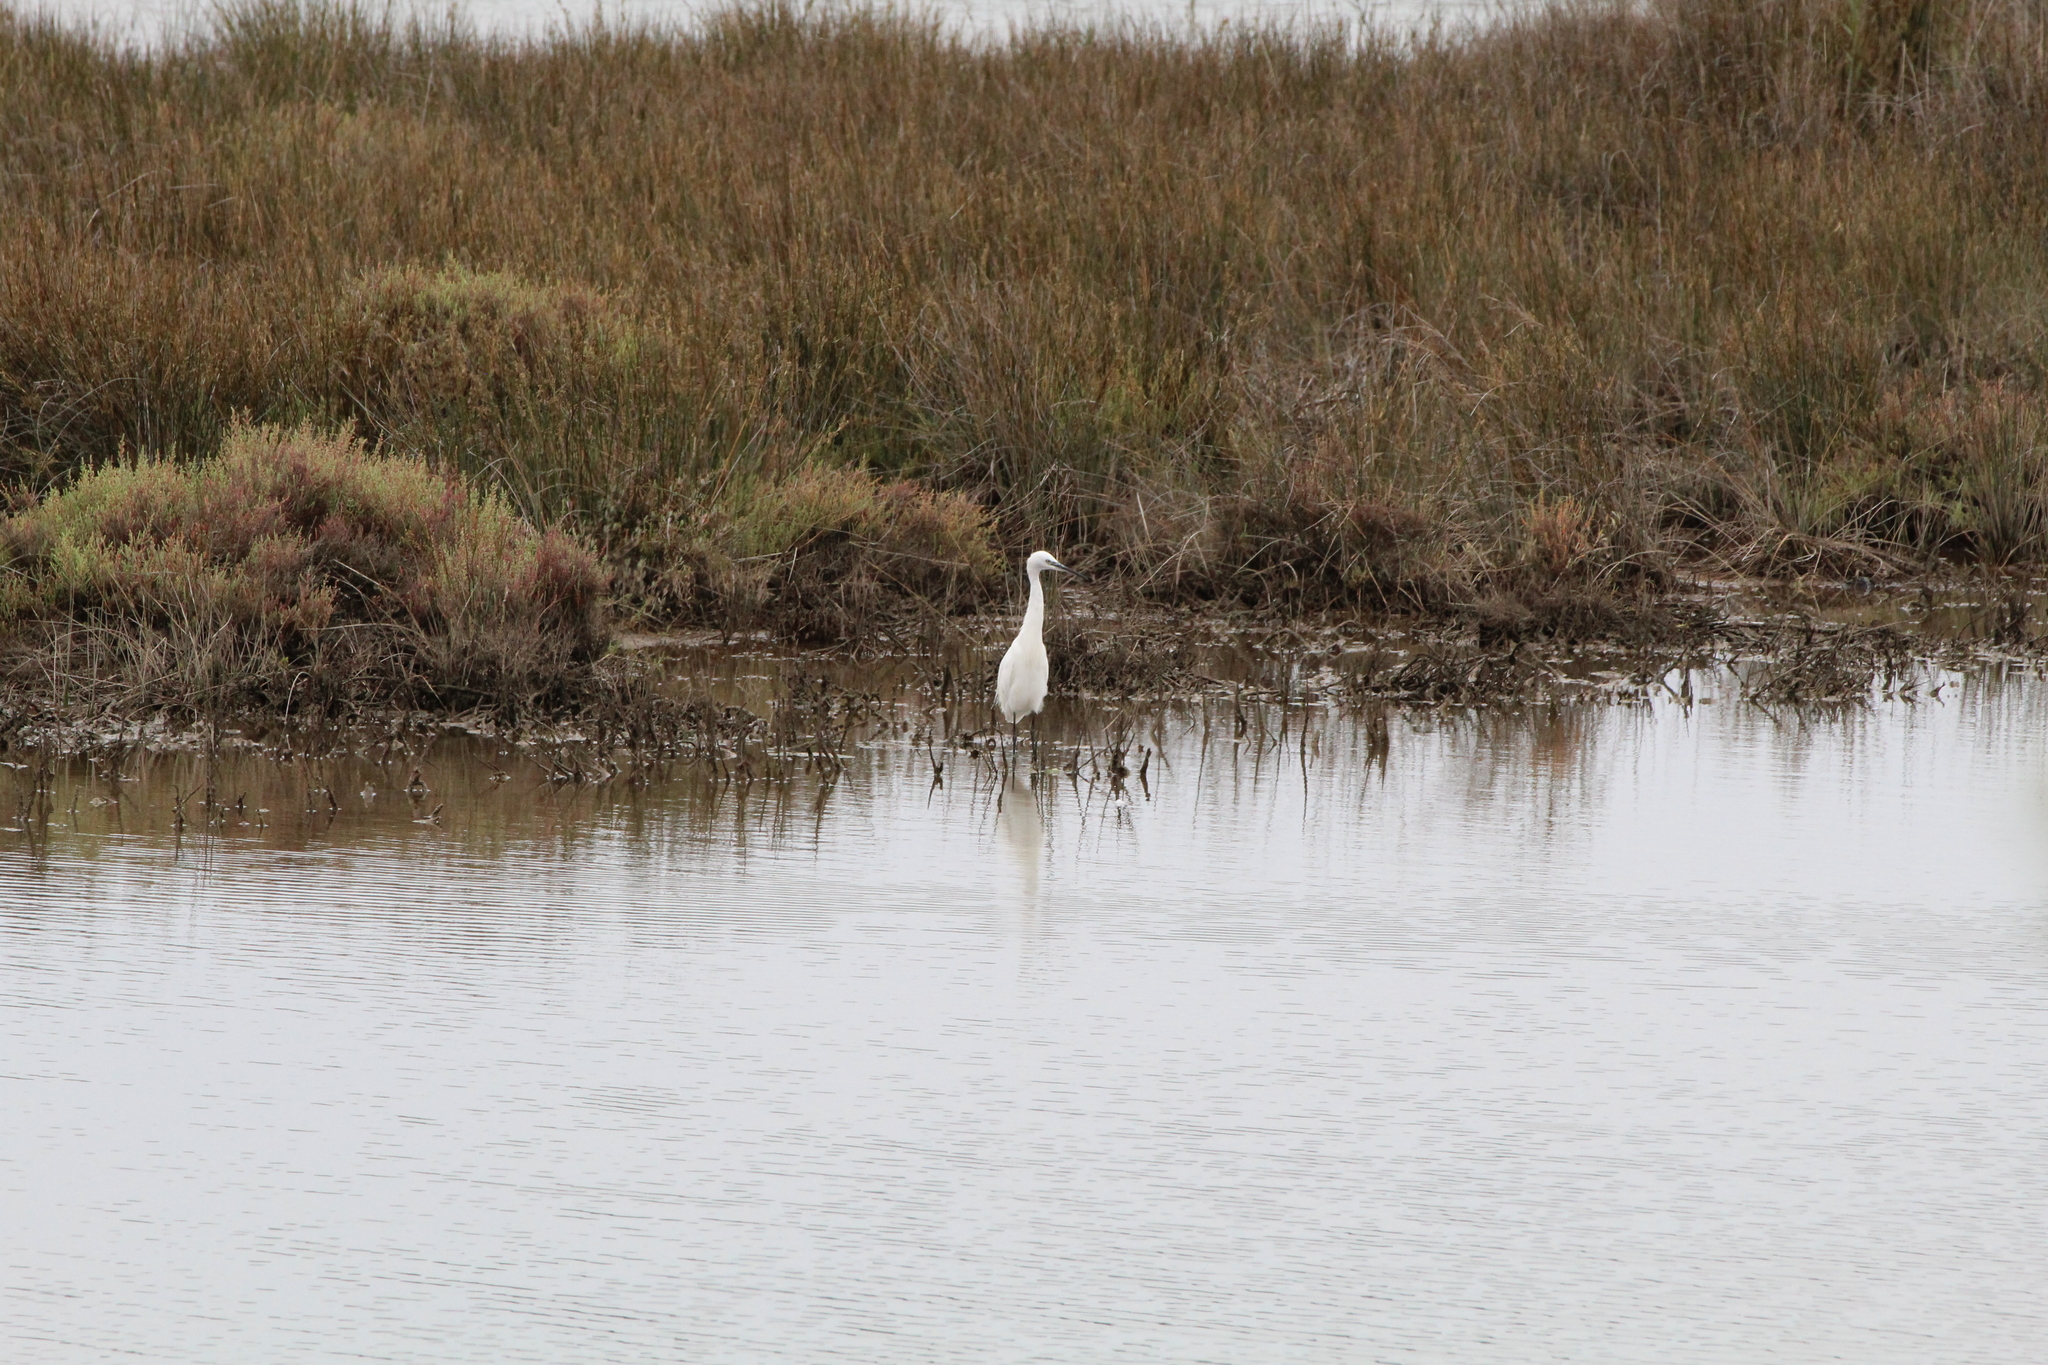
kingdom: Animalia
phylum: Chordata
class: Aves
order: Pelecaniformes
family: Ardeidae
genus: Egretta
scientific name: Egretta garzetta
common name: Little egret
